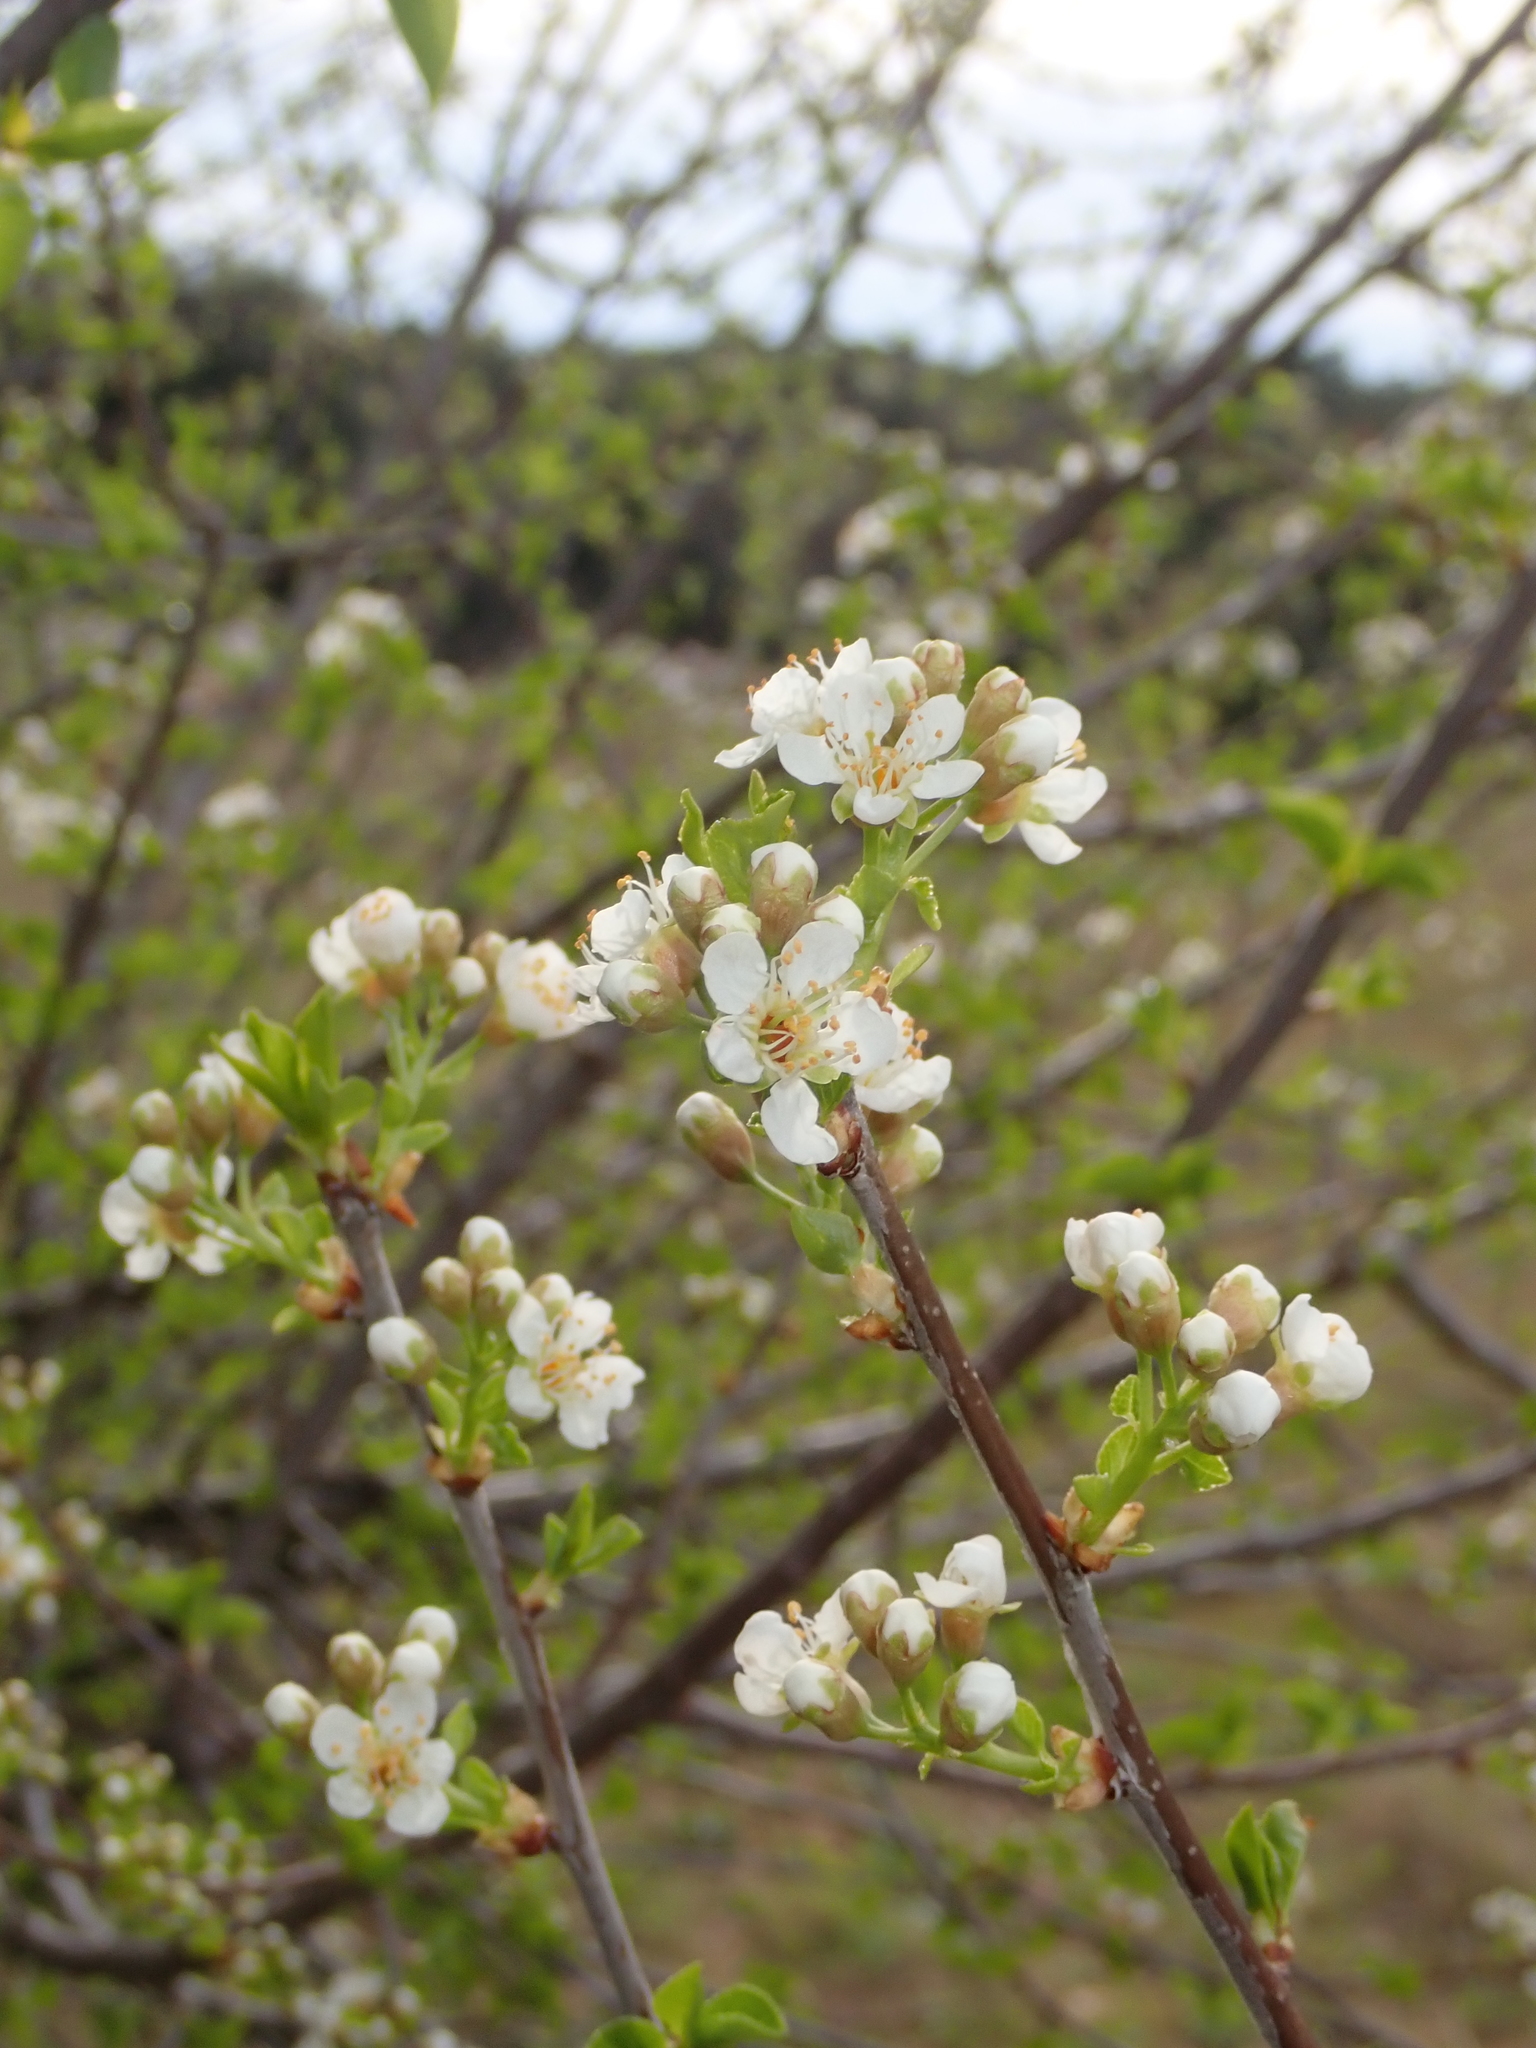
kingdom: Plantae
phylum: Tracheophyta
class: Magnoliopsida
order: Rosales
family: Rosaceae
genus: Prunus
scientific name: Prunus mahaleb
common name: Mahaleb cherry
